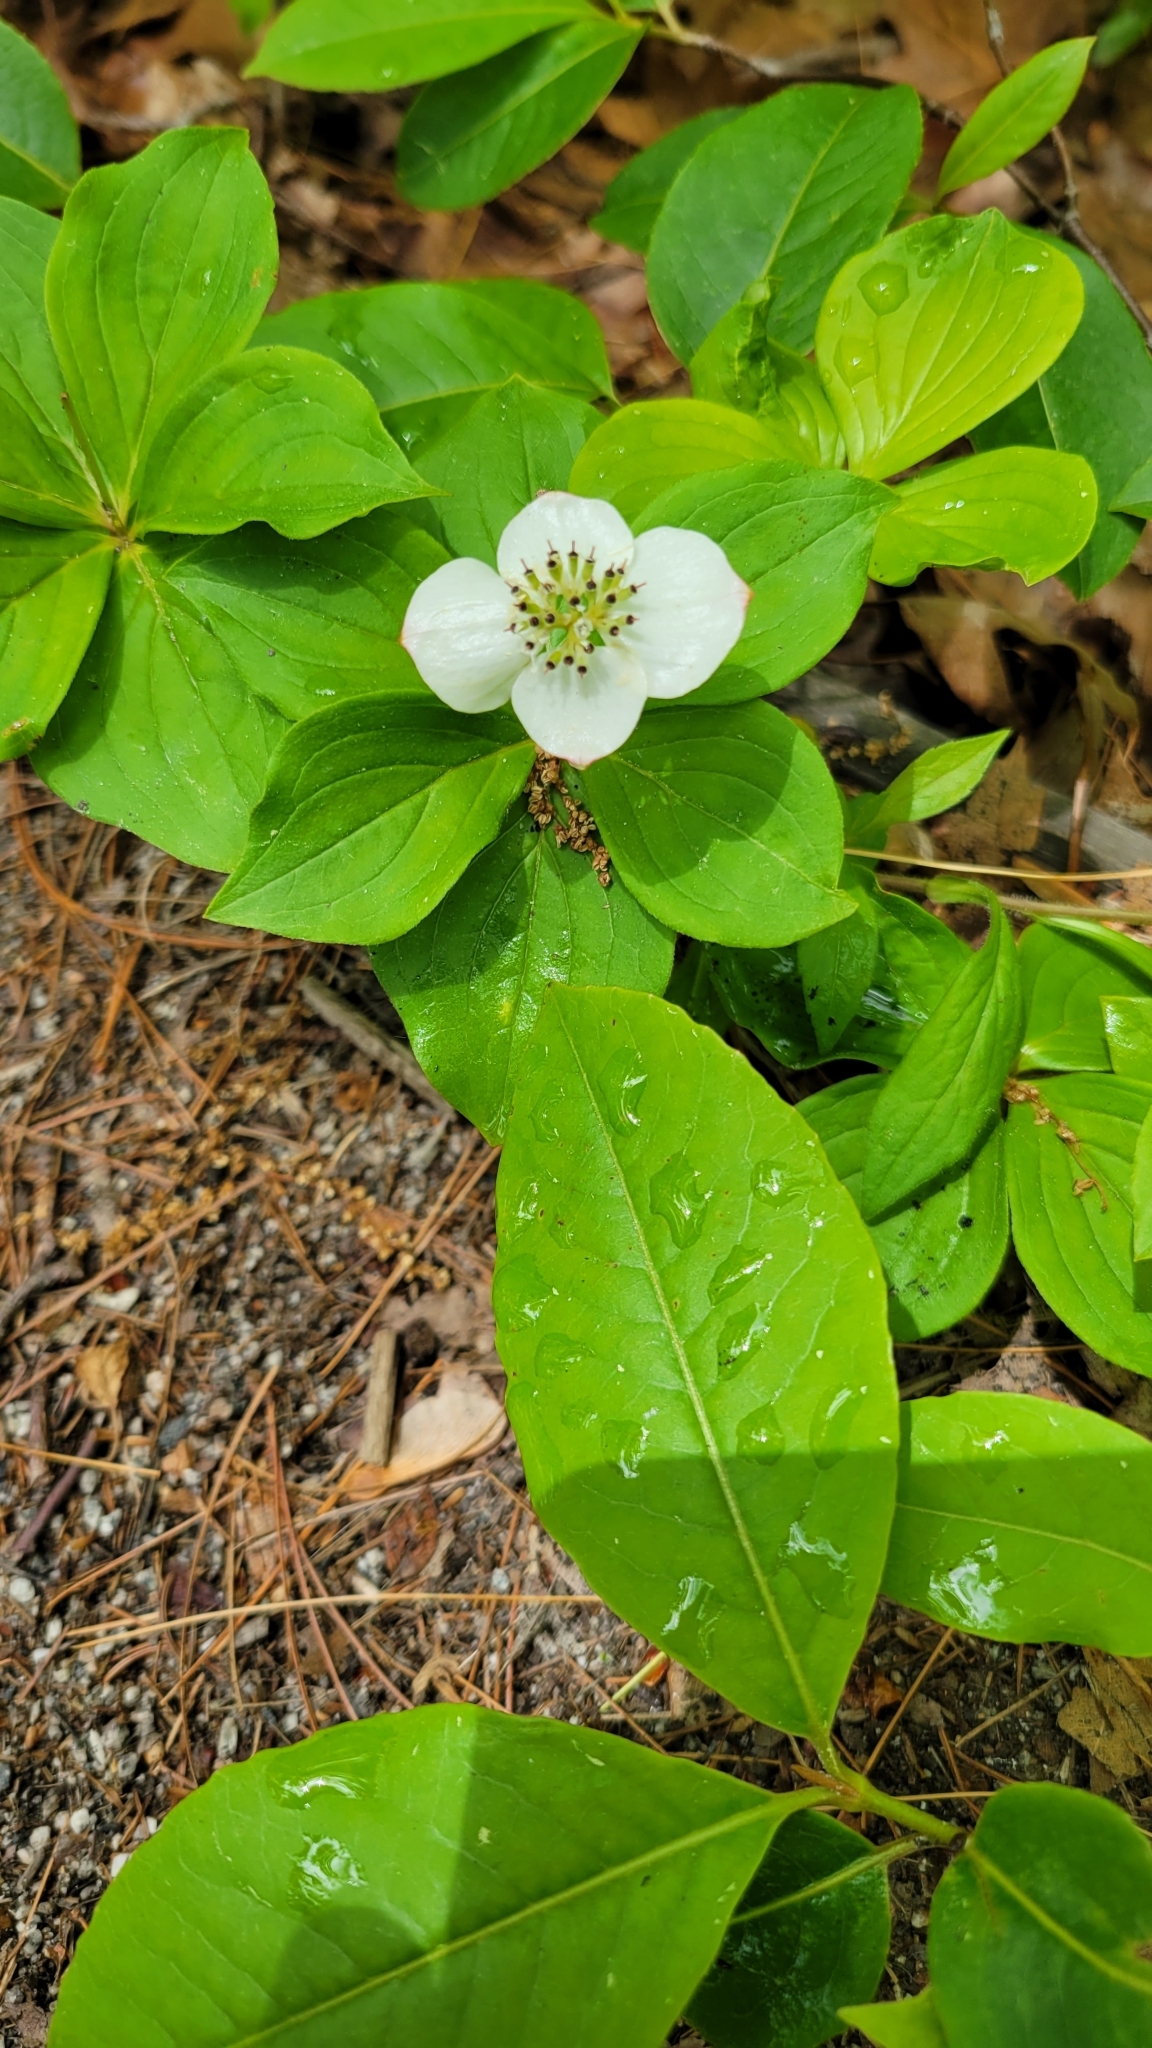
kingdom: Plantae
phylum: Tracheophyta
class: Magnoliopsida
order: Cornales
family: Cornaceae
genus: Cornus
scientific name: Cornus canadensis
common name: Creeping dogwood
